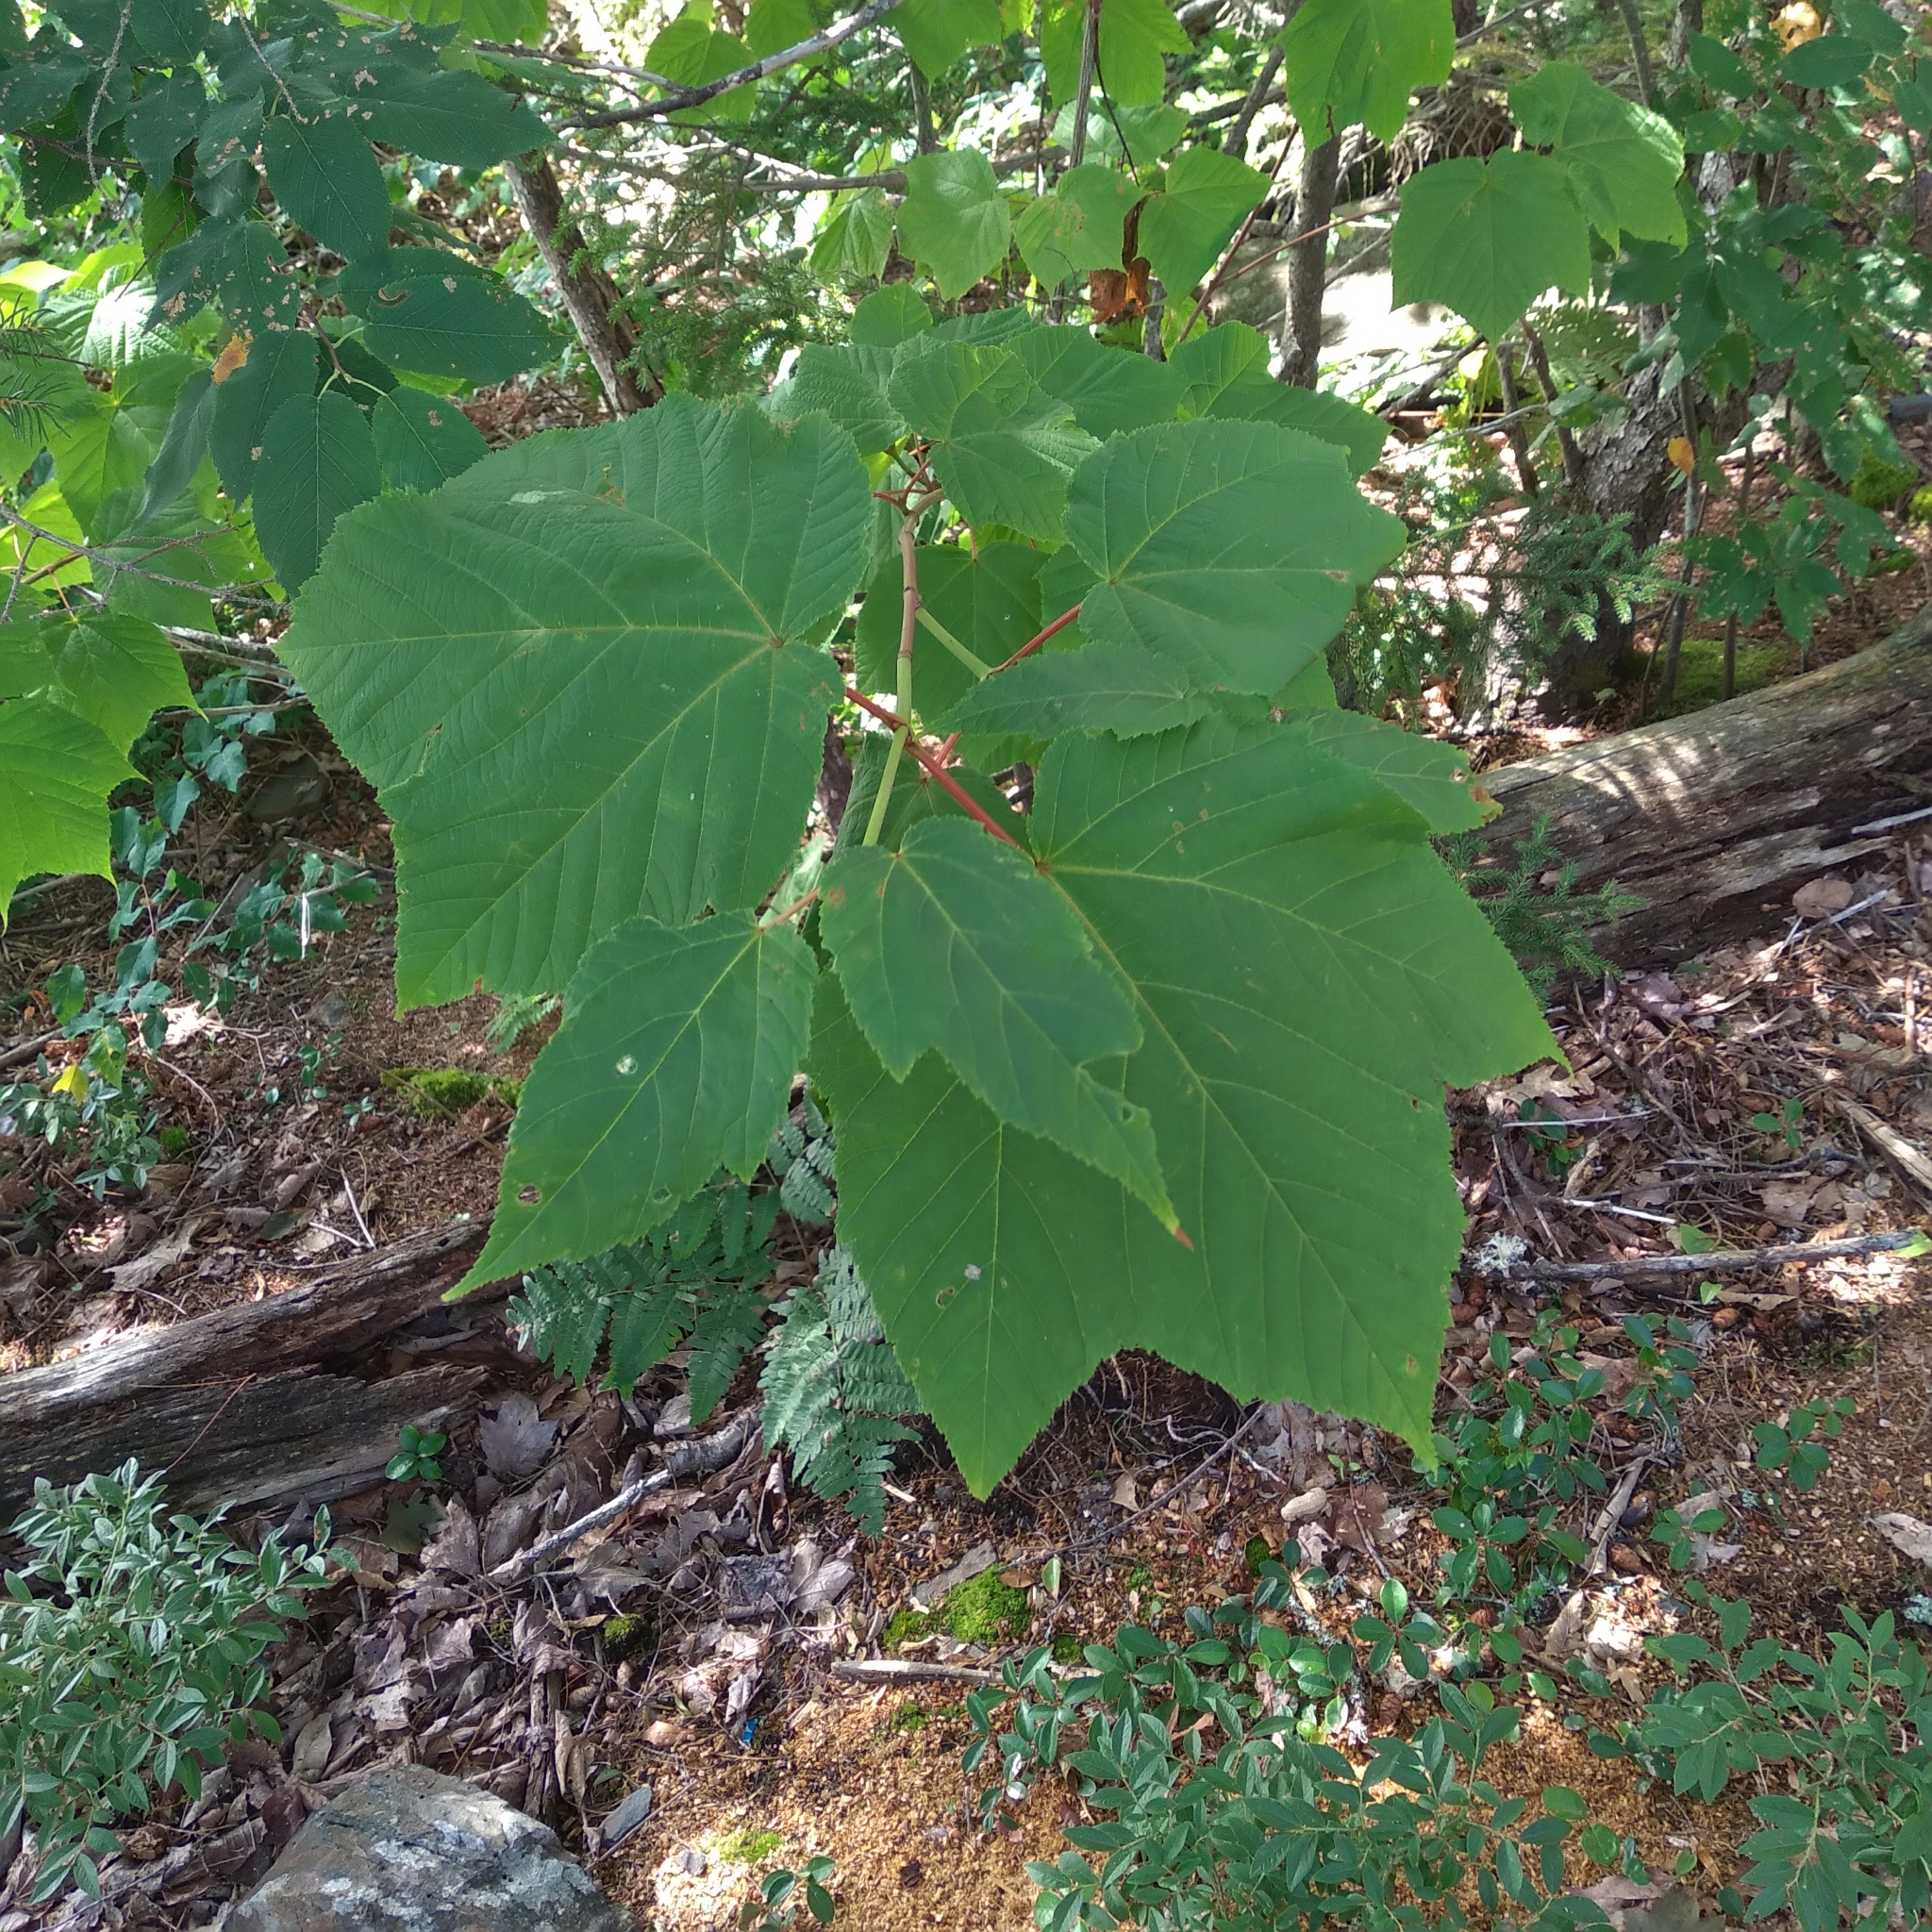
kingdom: Plantae
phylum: Tracheophyta
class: Magnoliopsida
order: Sapindales
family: Sapindaceae
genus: Acer
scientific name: Acer pensylvanicum
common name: Moosewood
